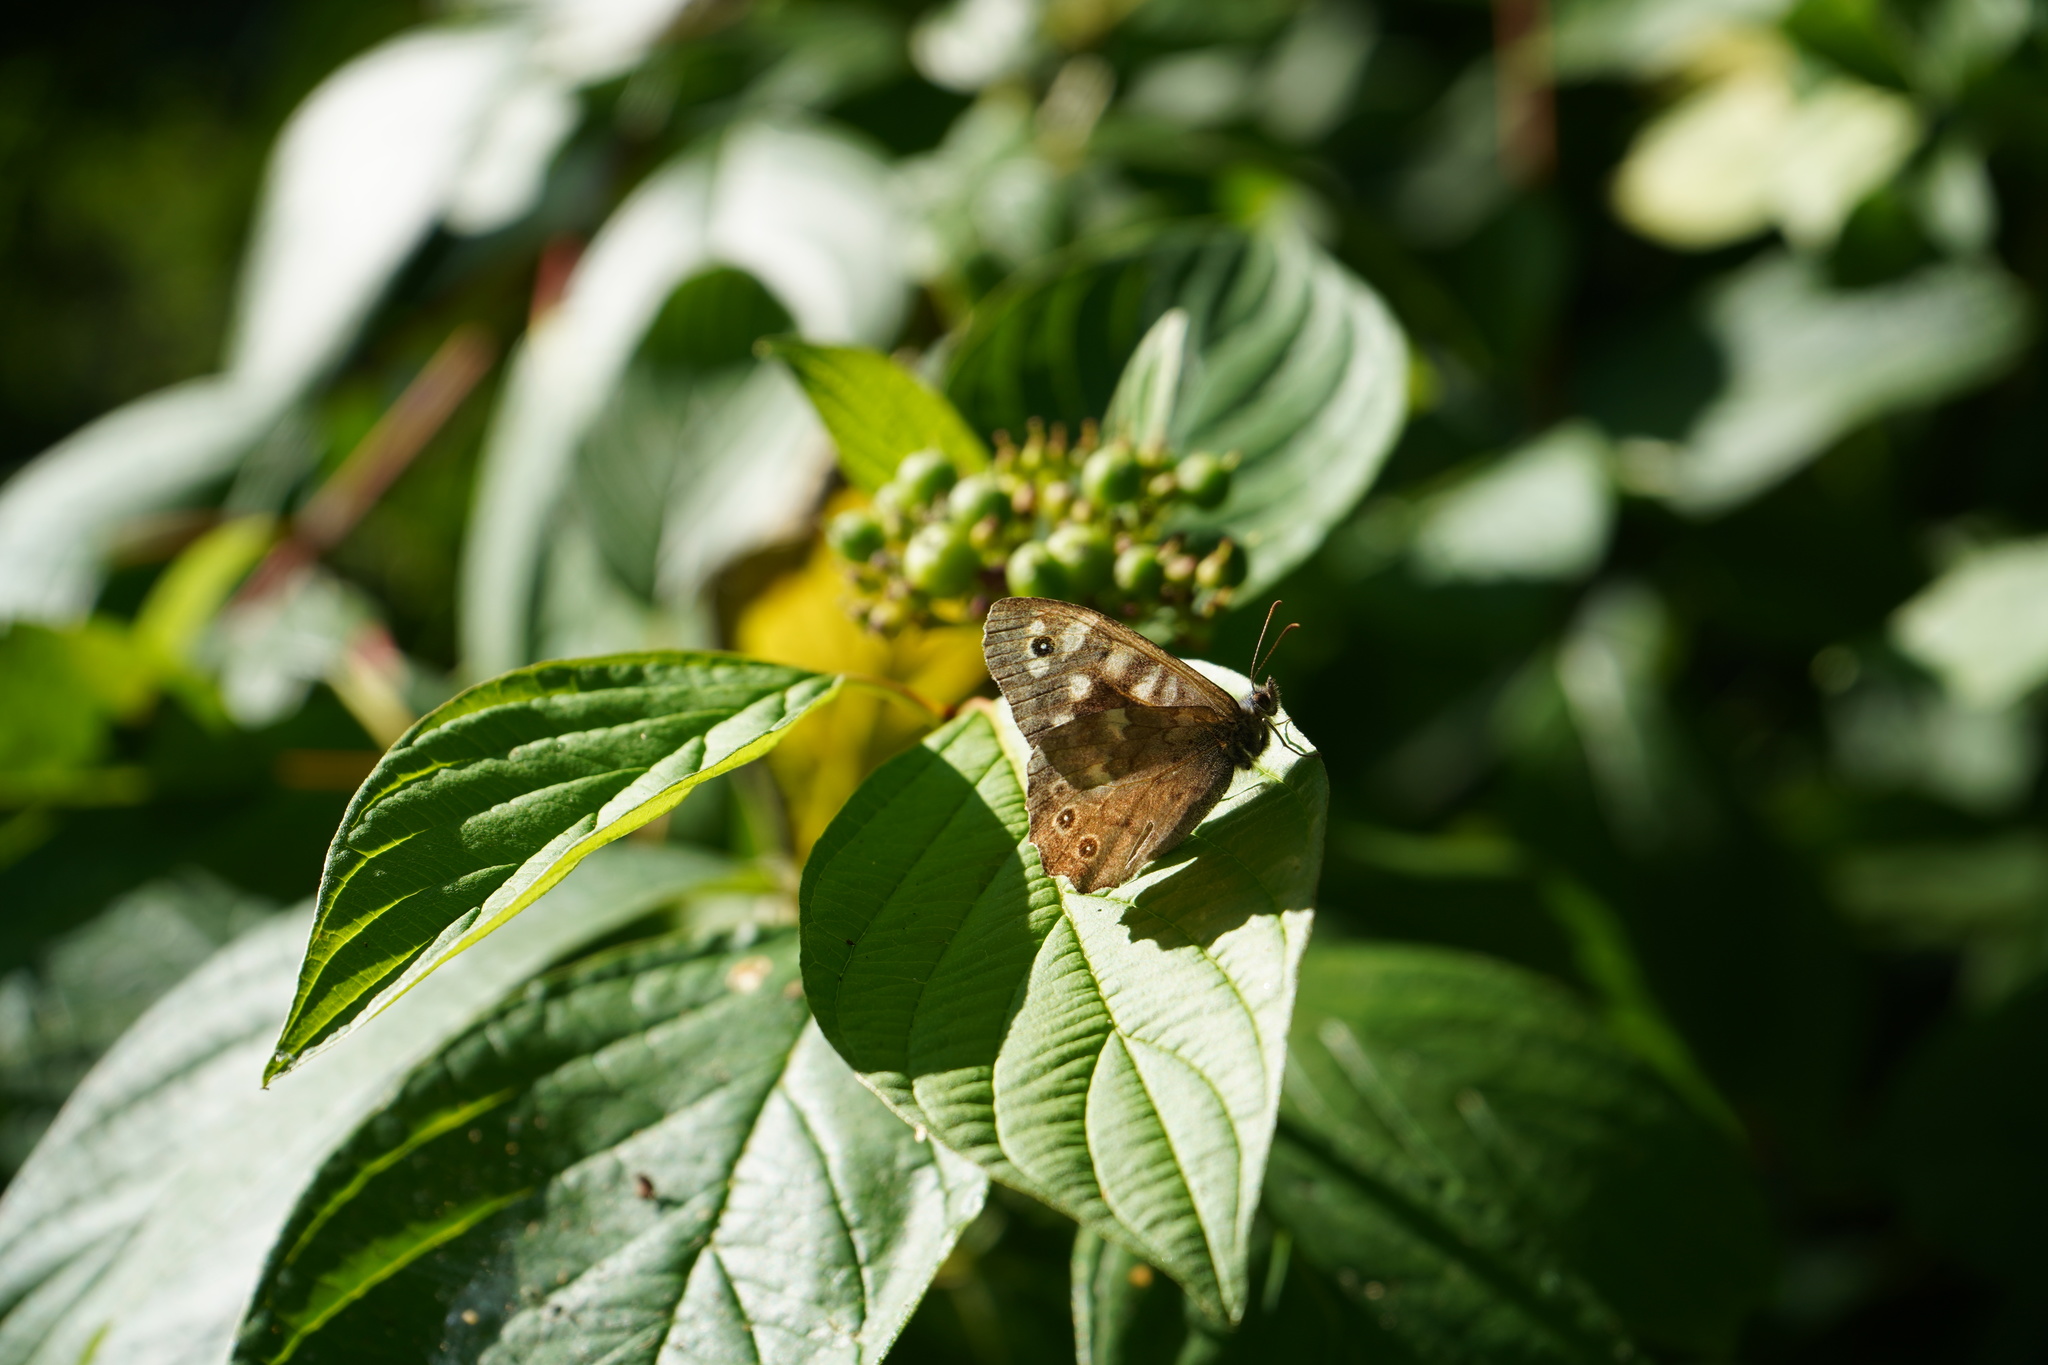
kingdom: Animalia
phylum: Arthropoda
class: Insecta
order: Lepidoptera
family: Nymphalidae
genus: Pararge
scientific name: Pararge aegeria
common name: Speckled wood
